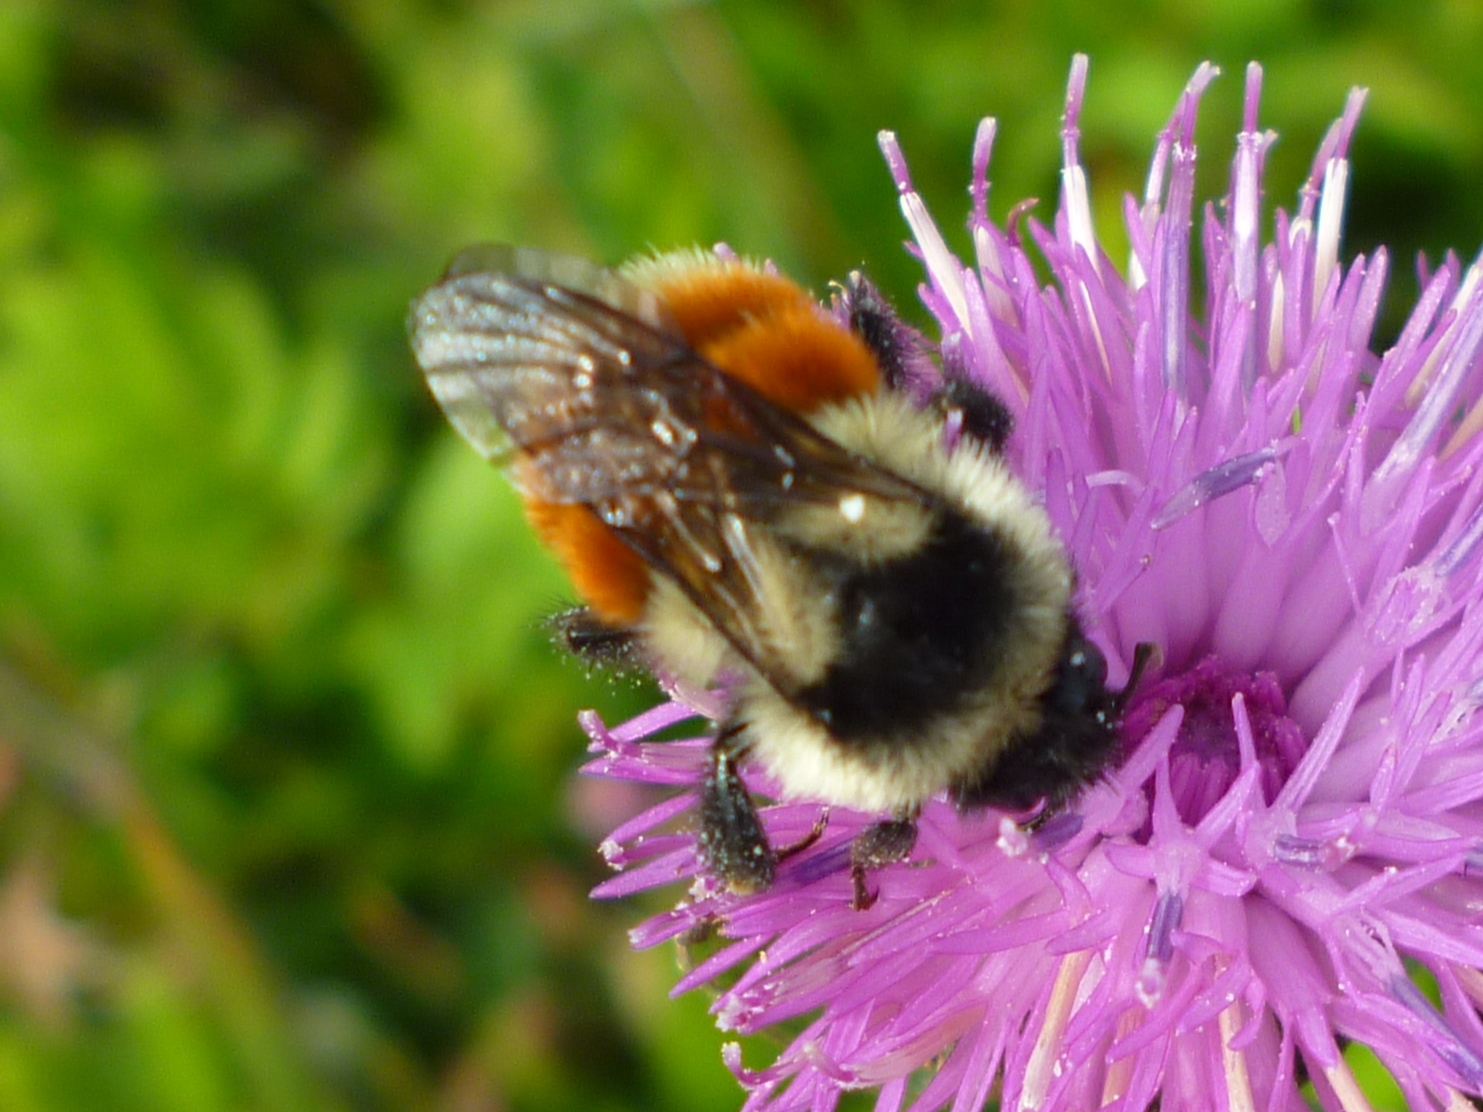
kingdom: Animalia
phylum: Arthropoda
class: Insecta
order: Hymenoptera
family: Apidae
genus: Bombus
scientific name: Bombus ternarius
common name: Tri-colored bumble bee
